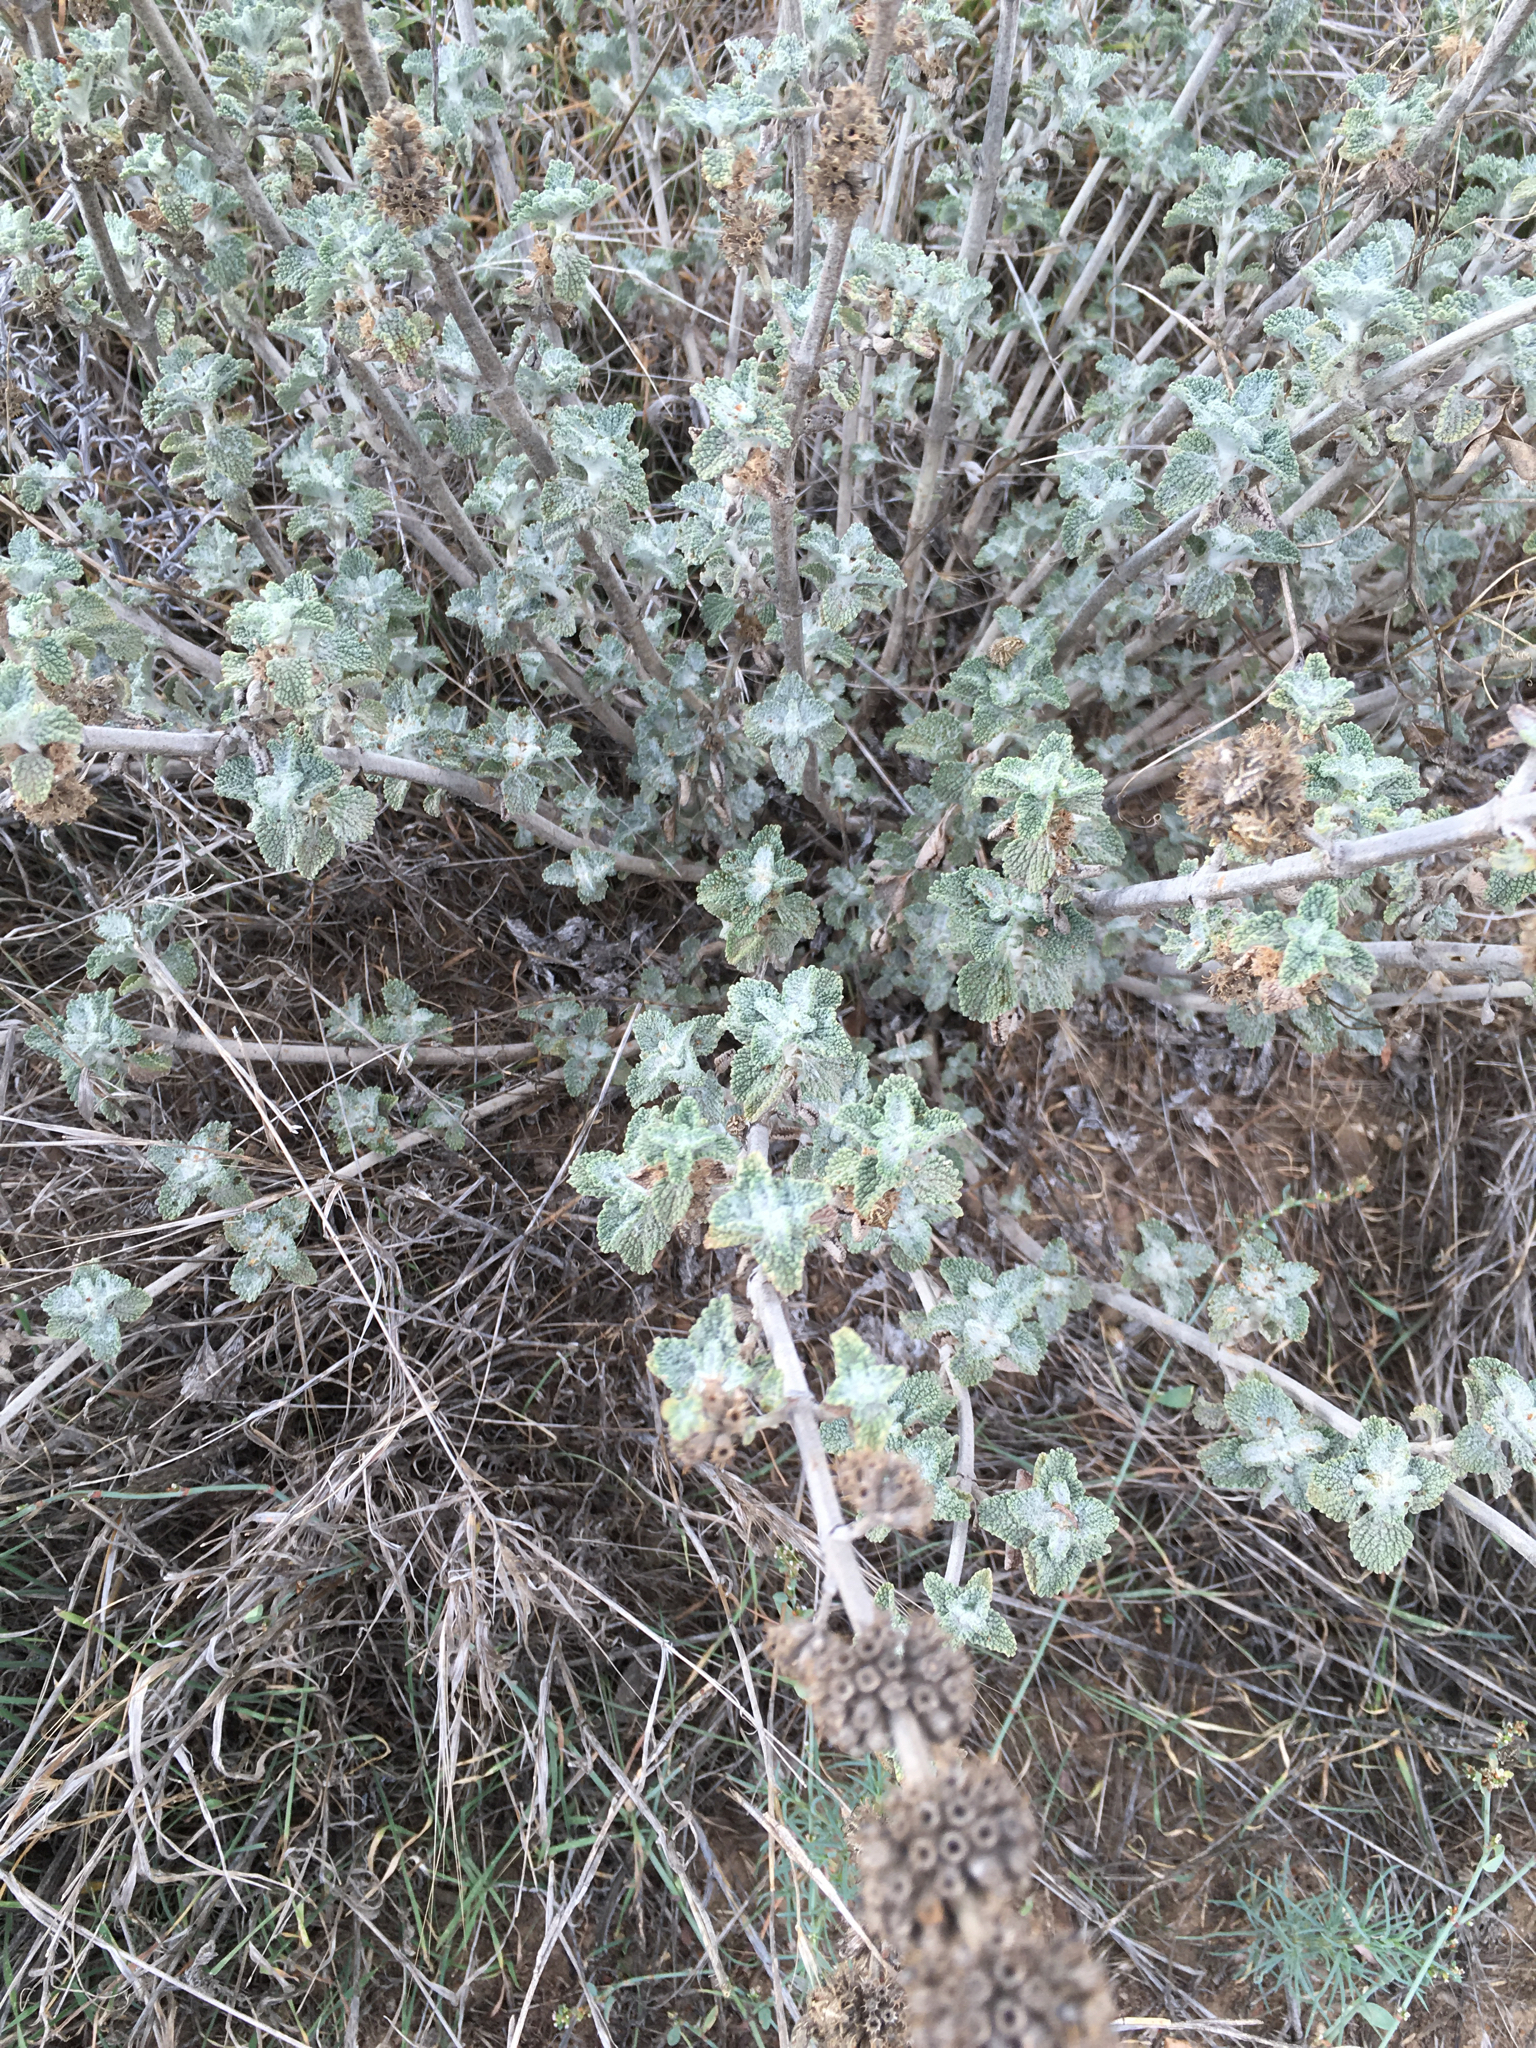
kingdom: Plantae
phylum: Tracheophyta
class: Magnoliopsida
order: Lamiales
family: Lamiaceae
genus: Marrubium
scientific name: Marrubium vulgare
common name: Horehound
